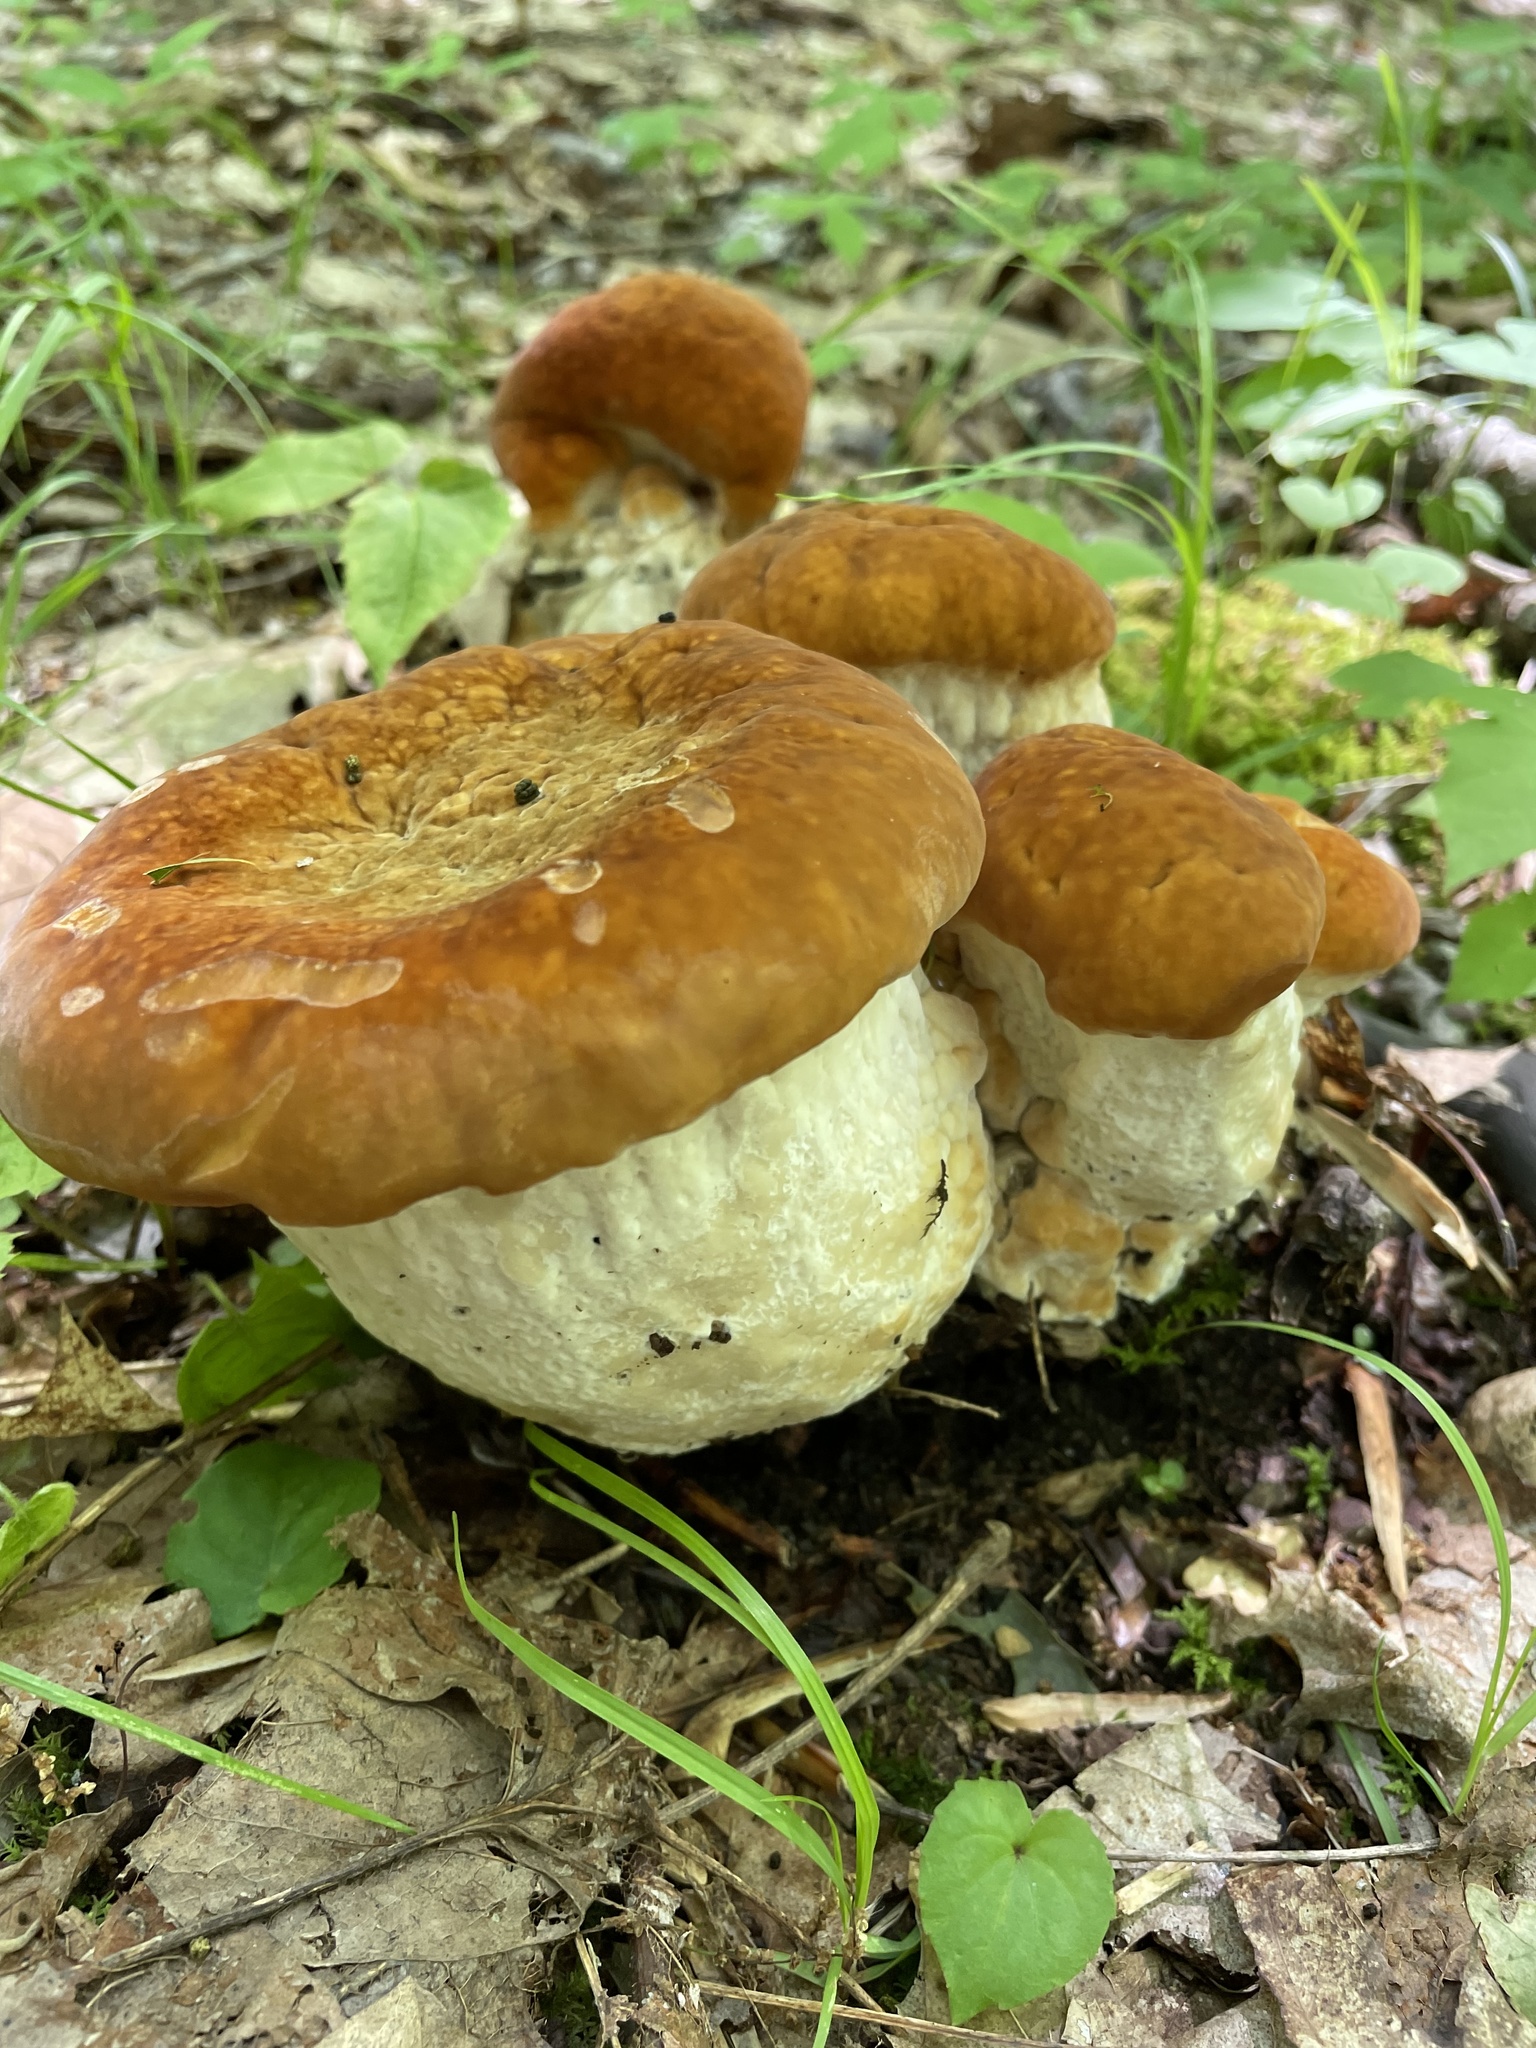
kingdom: Fungi
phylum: Basidiomycota
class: Agaricomycetes
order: Polyporales
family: Fomitopsidaceae
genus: Niveoporofomes
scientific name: Niveoporofomes spraguei
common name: Green cheese polypore
